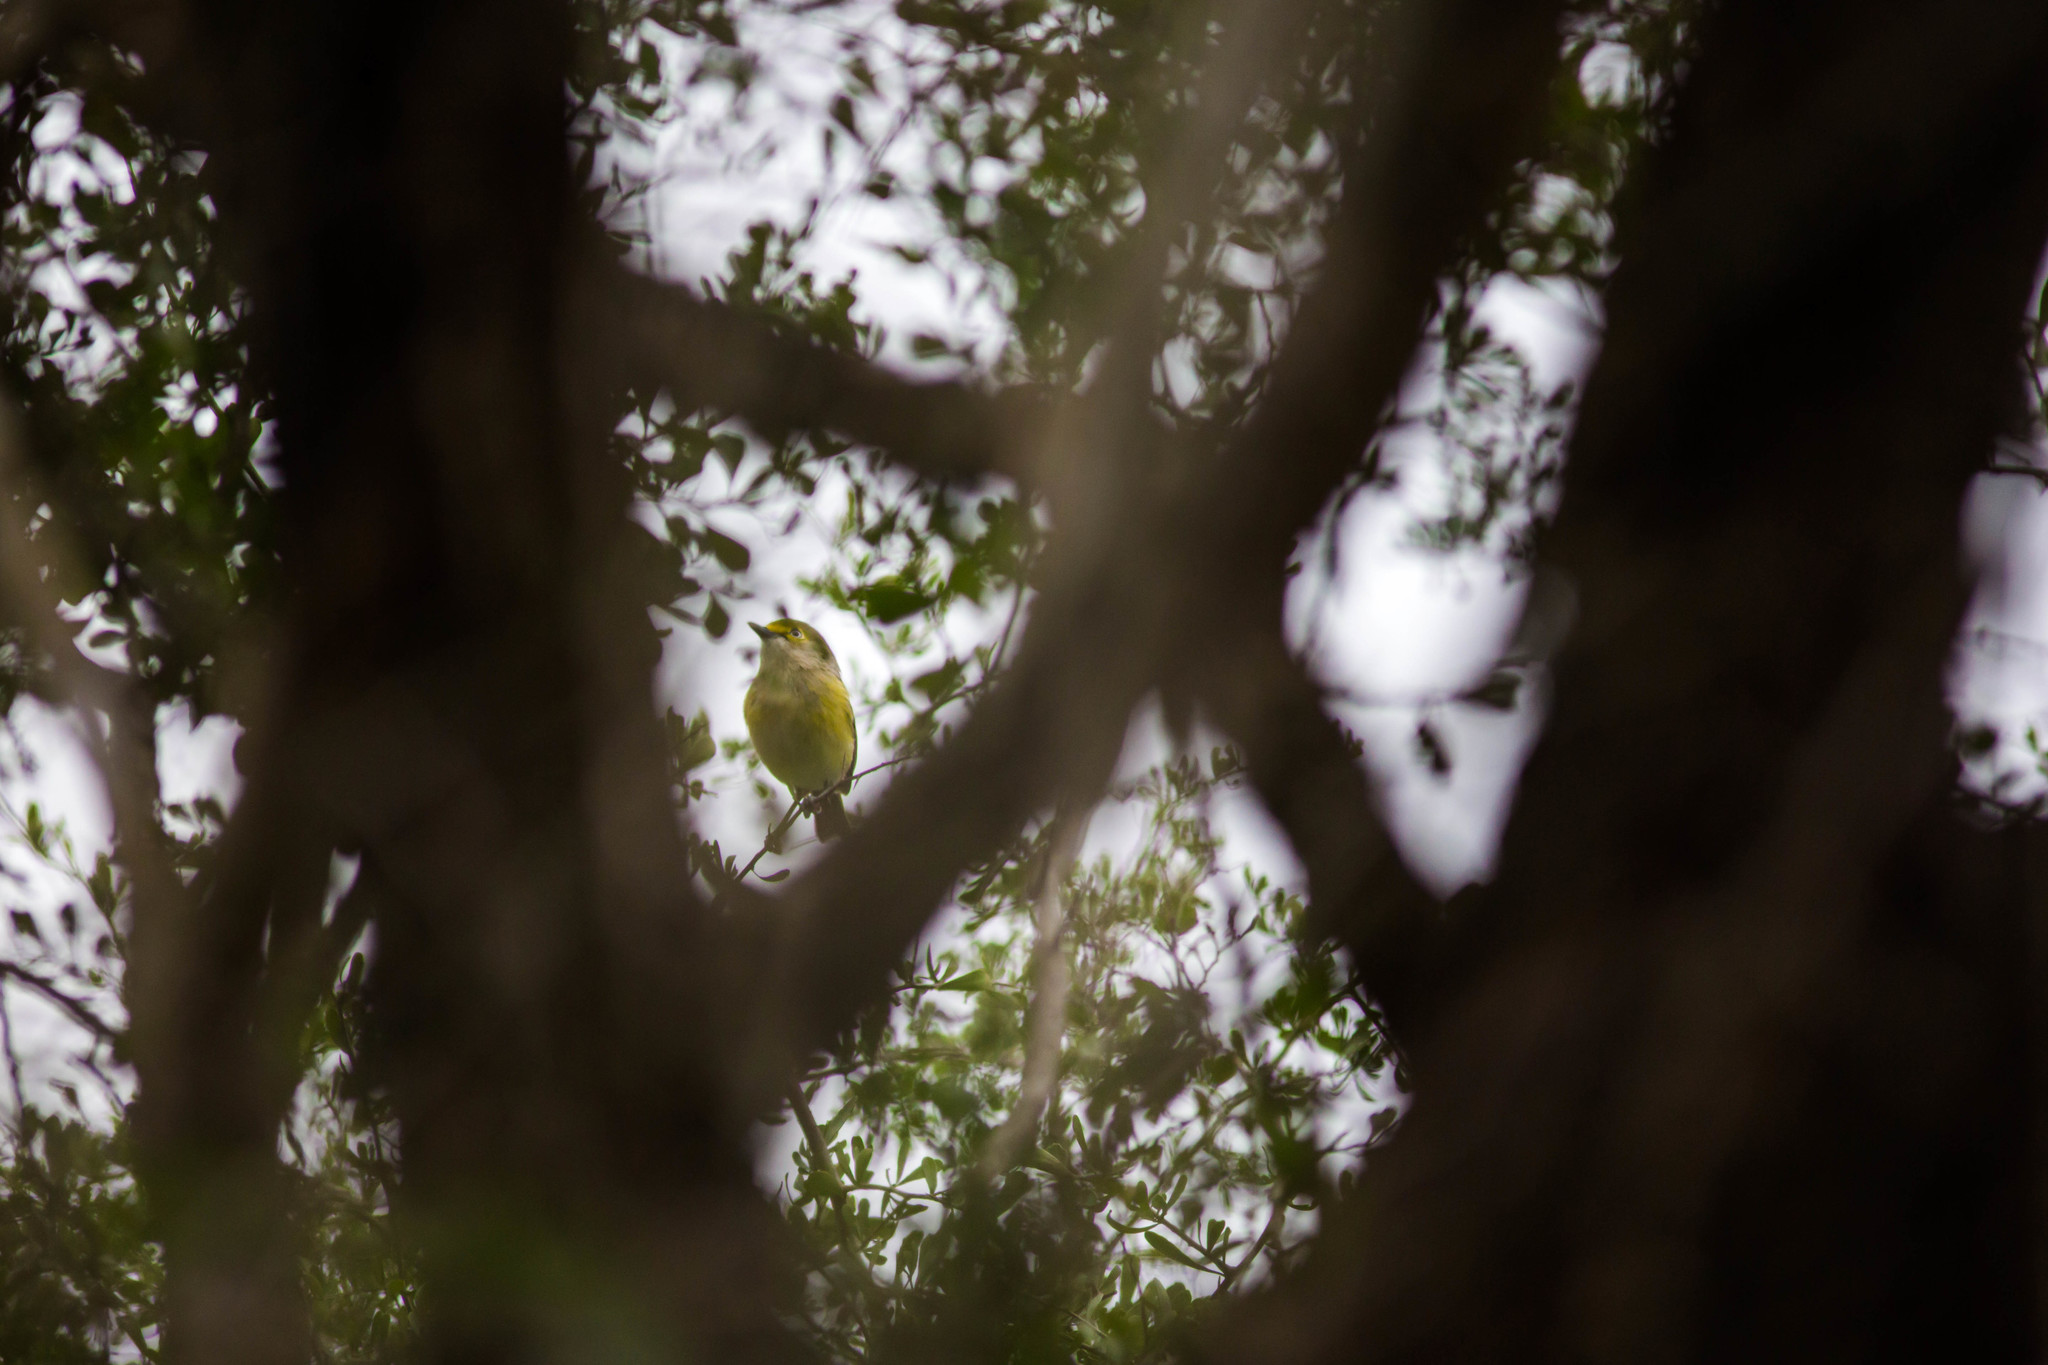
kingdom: Animalia
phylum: Chordata
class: Aves
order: Passeriformes
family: Vireonidae
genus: Vireo
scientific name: Vireo griseus
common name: White-eyed vireo
